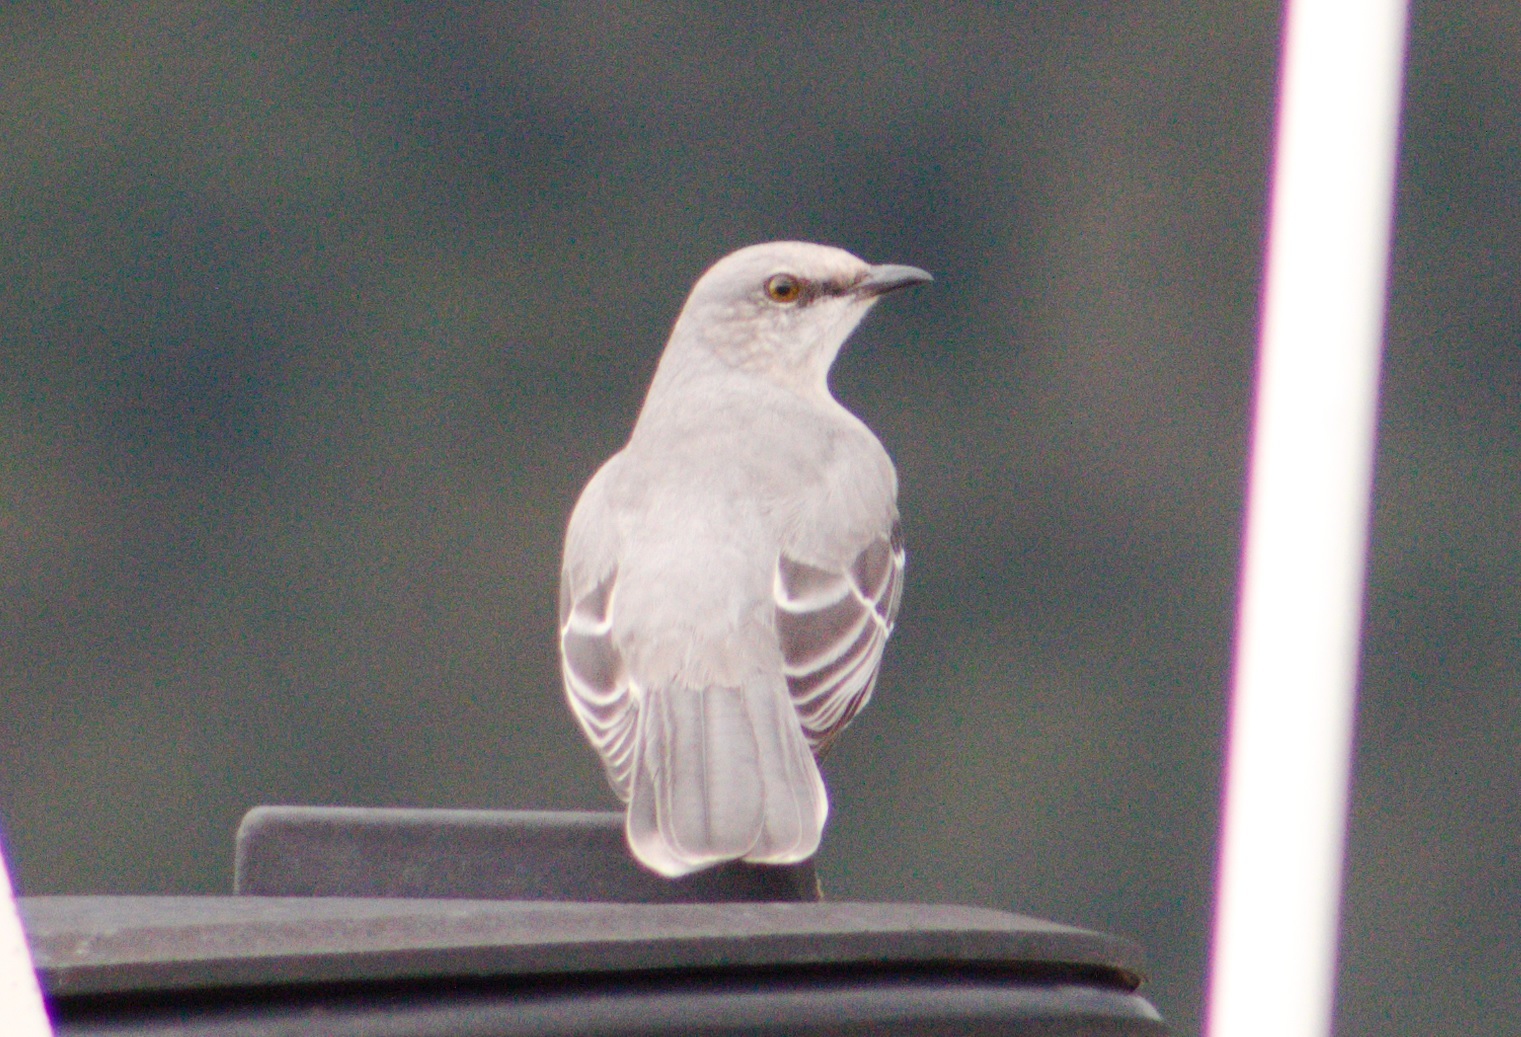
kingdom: Animalia
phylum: Chordata
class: Aves
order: Passeriformes
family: Mimidae
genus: Mimus
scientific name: Mimus gilvus
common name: Tropical mockingbird
